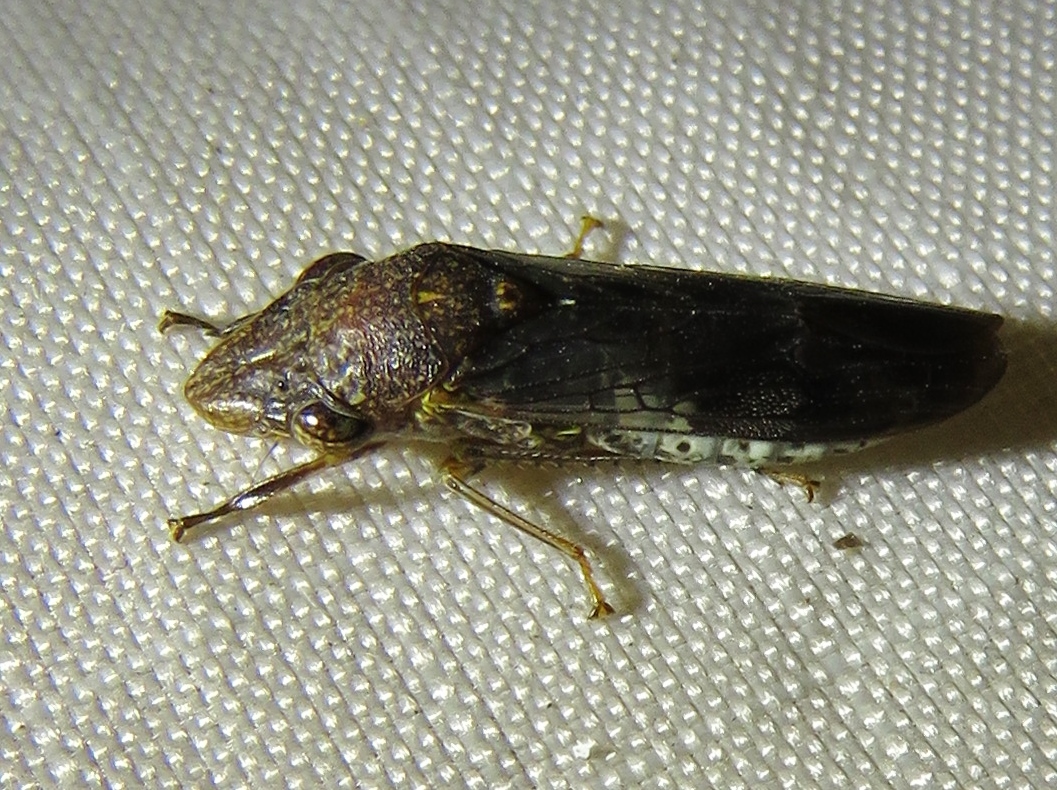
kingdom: Animalia
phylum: Arthropoda
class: Insecta
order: Hemiptera
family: Cicadellidae
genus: Homalodisca
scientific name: Homalodisca vitripennis
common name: Glassy-winged sharpshooter
